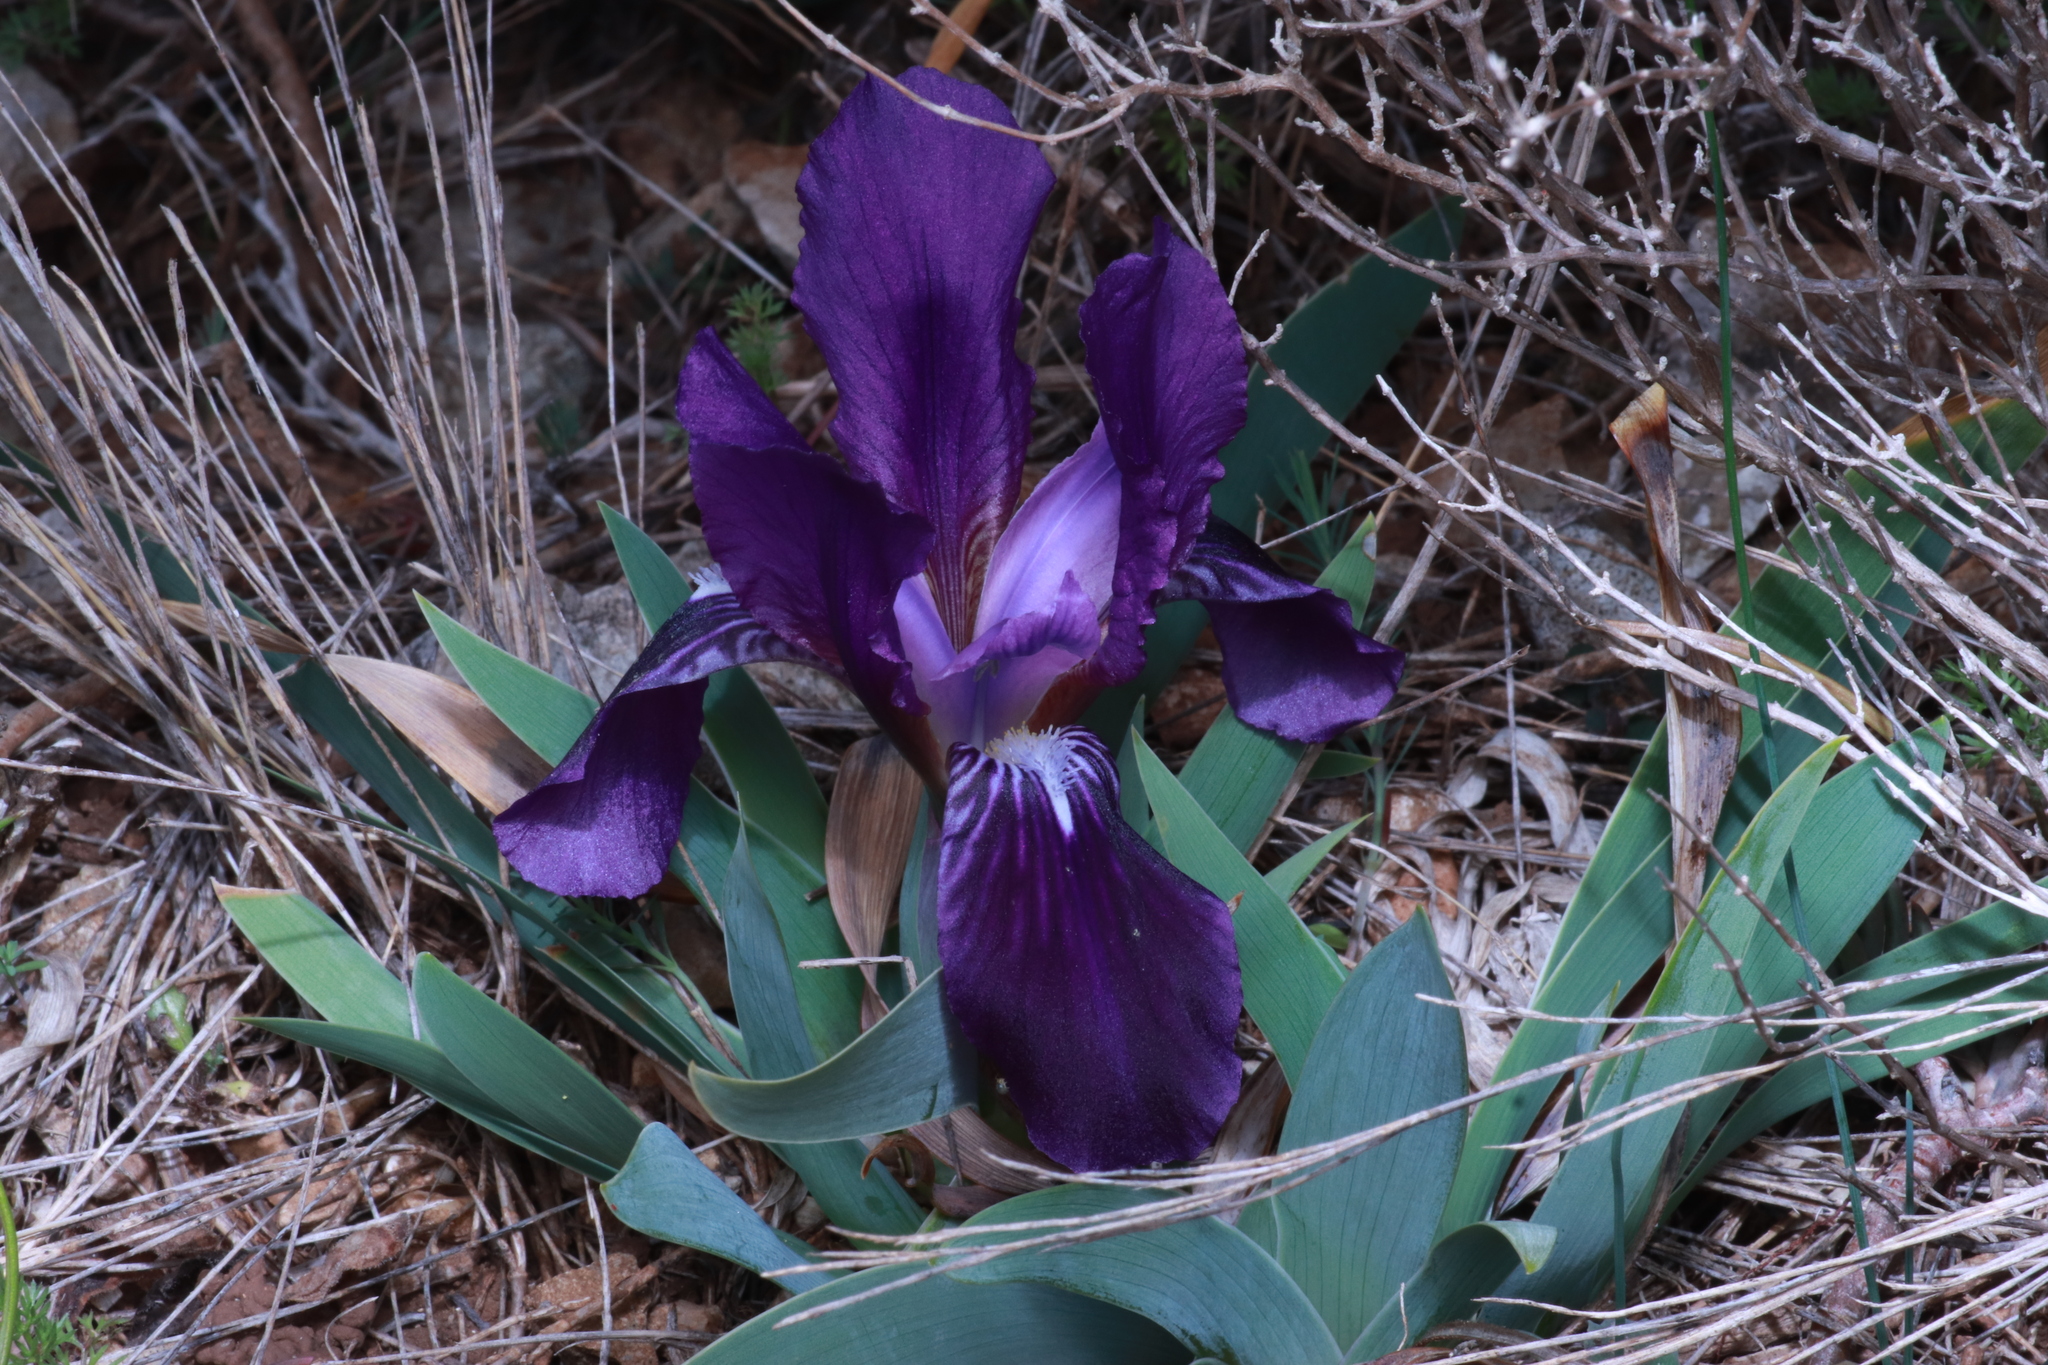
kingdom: Plantae
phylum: Tracheophyta
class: Liliopsida
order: Asparagales
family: Iridaceae
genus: Iris
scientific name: Iris lutescens
